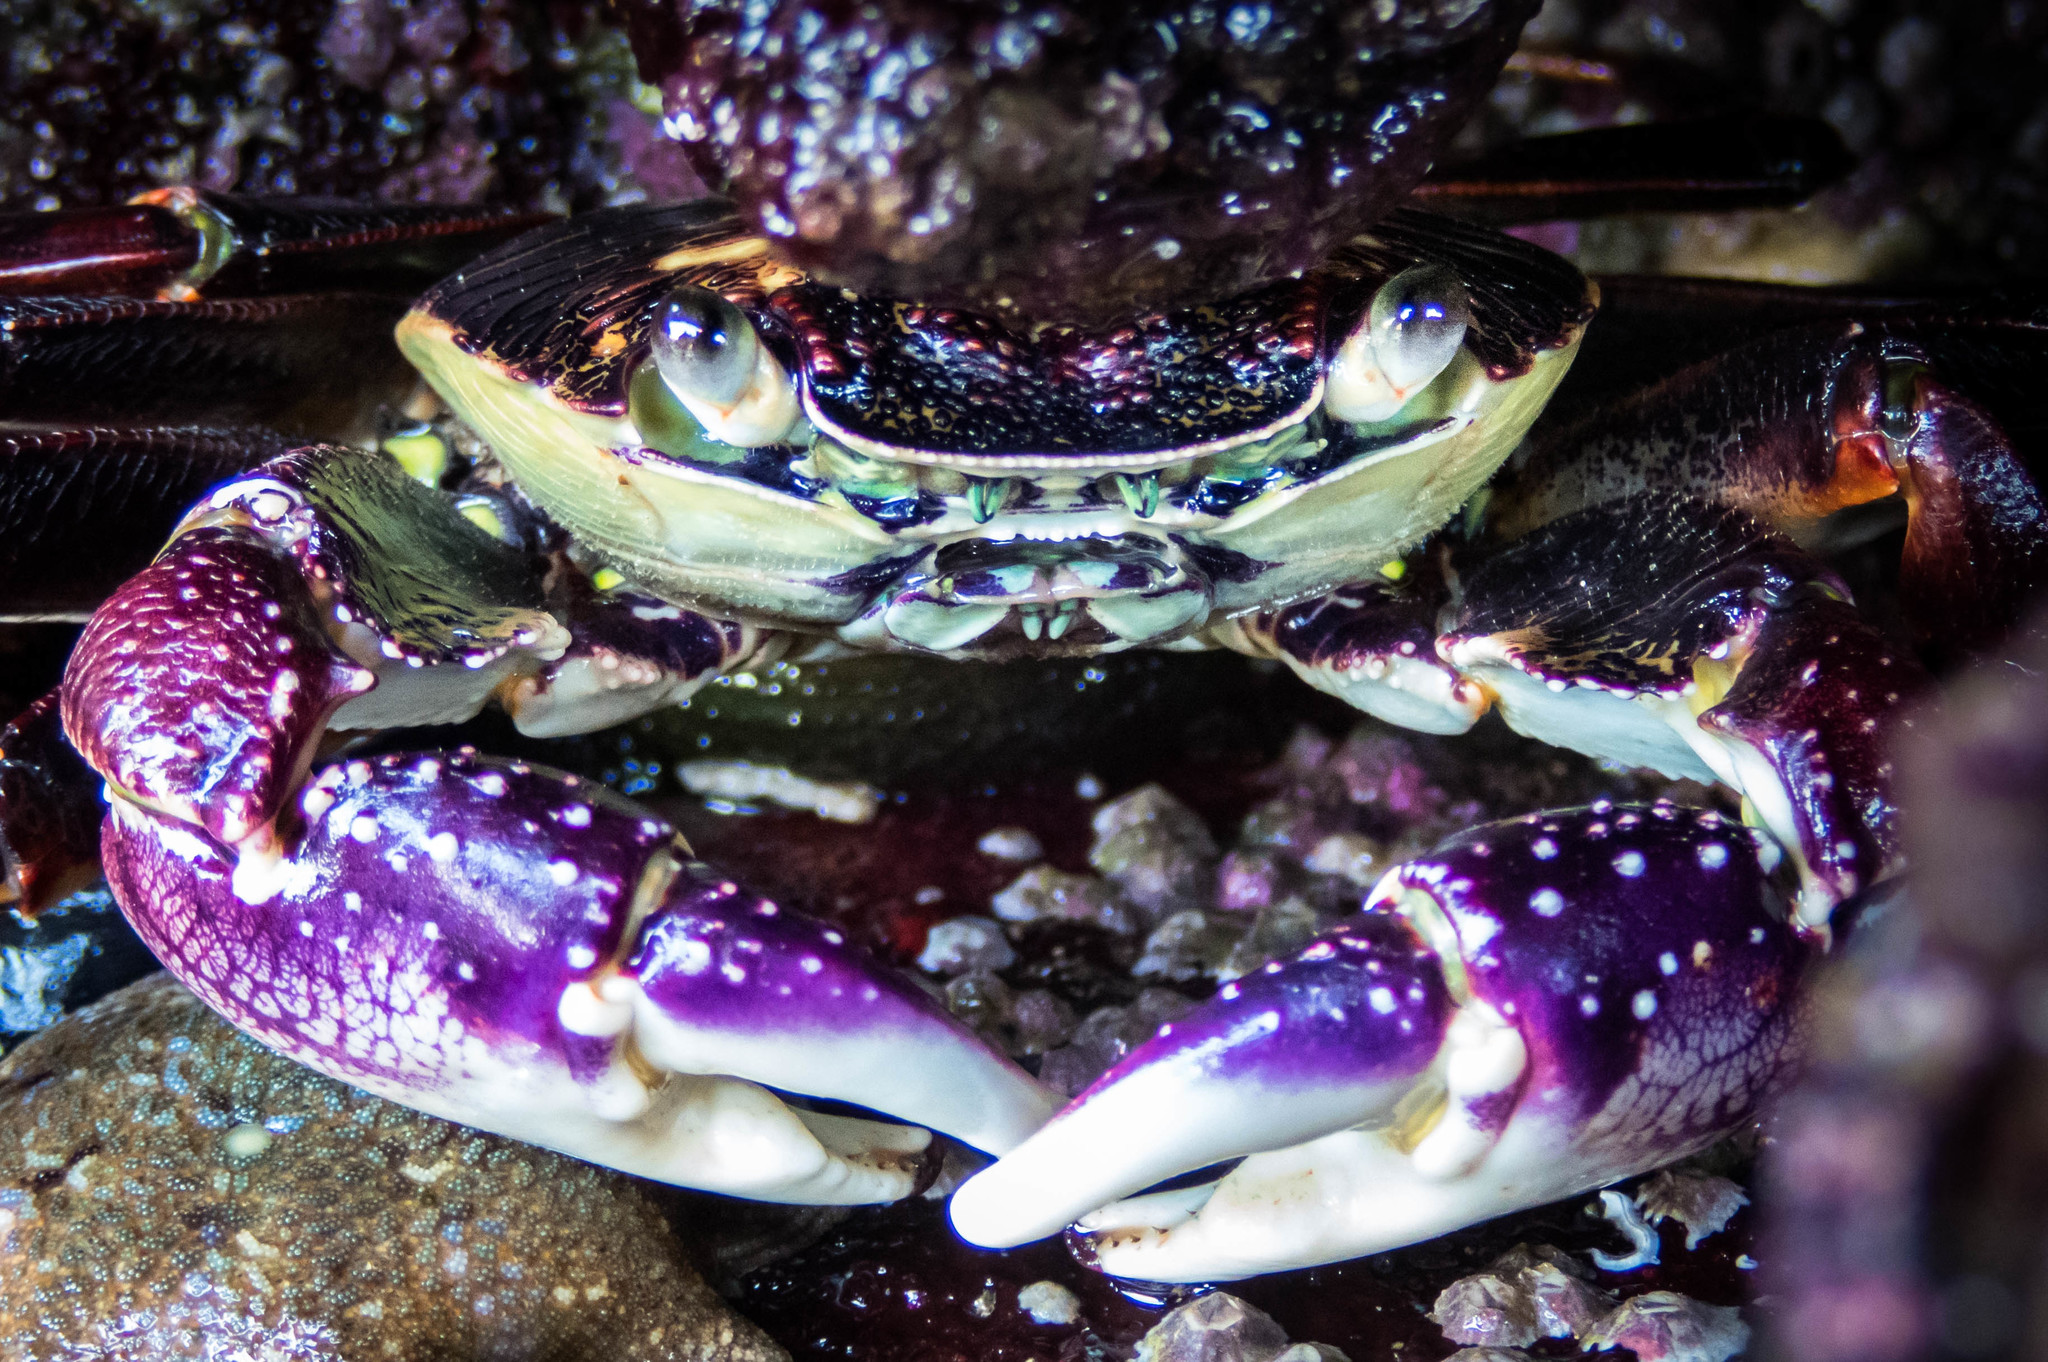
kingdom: Animalia
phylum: Arthropoda
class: Malacostraca
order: Decapoda
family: Grapsidae
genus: Leptograpsus
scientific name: Leptograpsus variegatus
